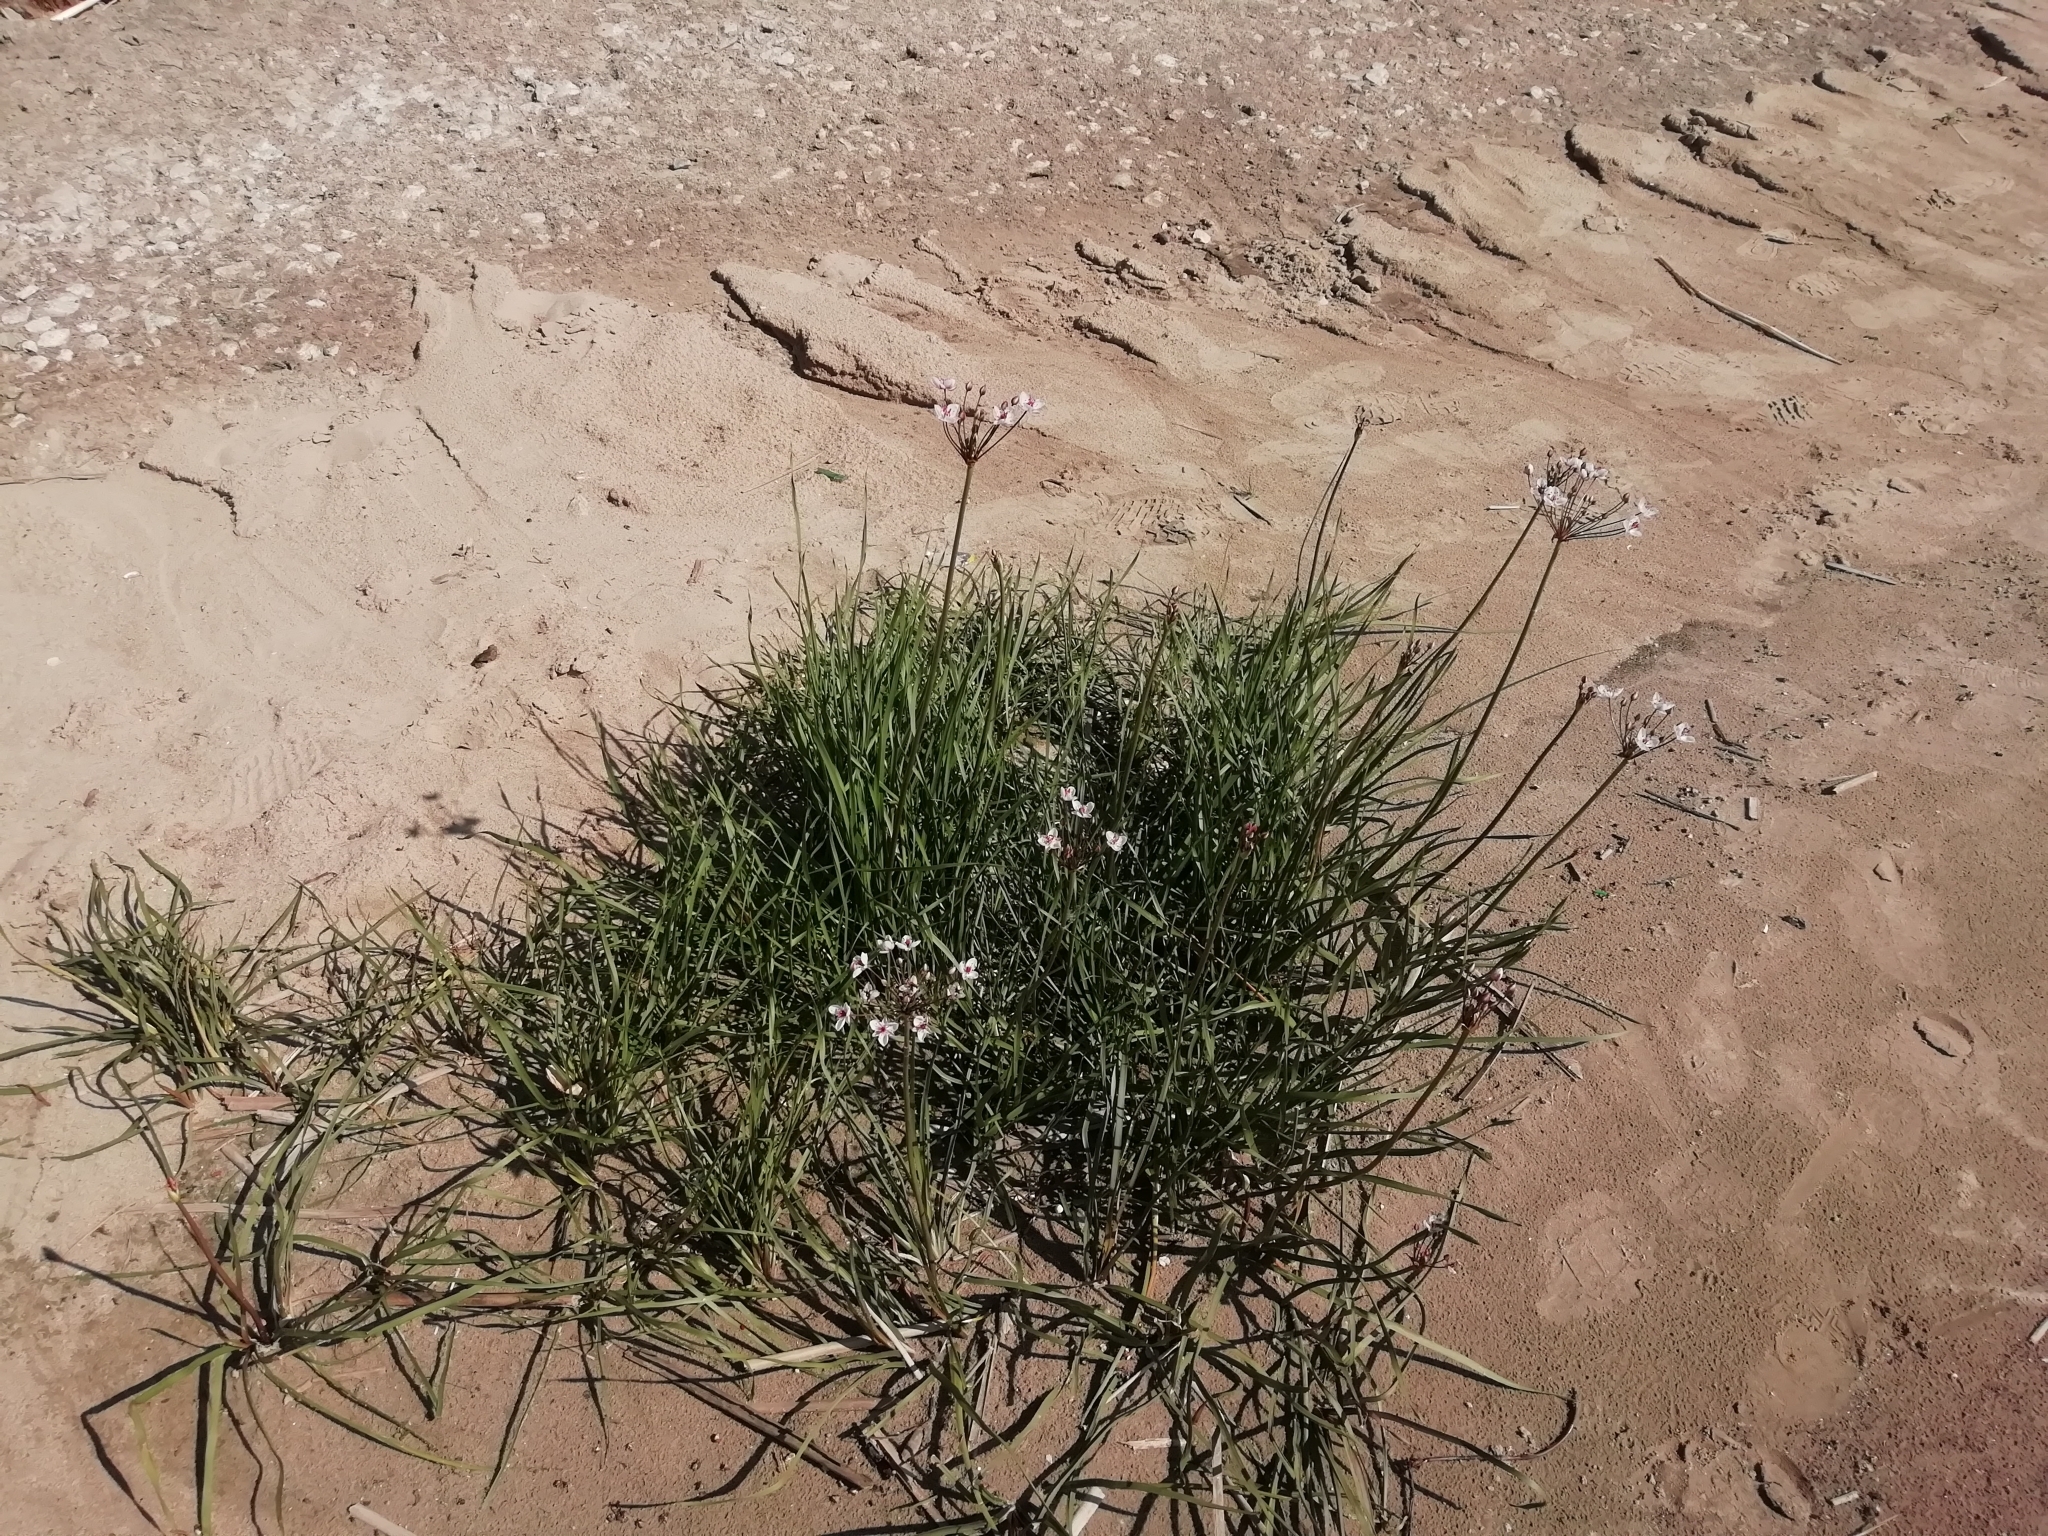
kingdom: Plantae
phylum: Tracheophyta
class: Liliopsida
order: Alismatales
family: Butomaceae
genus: Butomus
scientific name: Butomus umbellatus
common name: Flowering-rush
